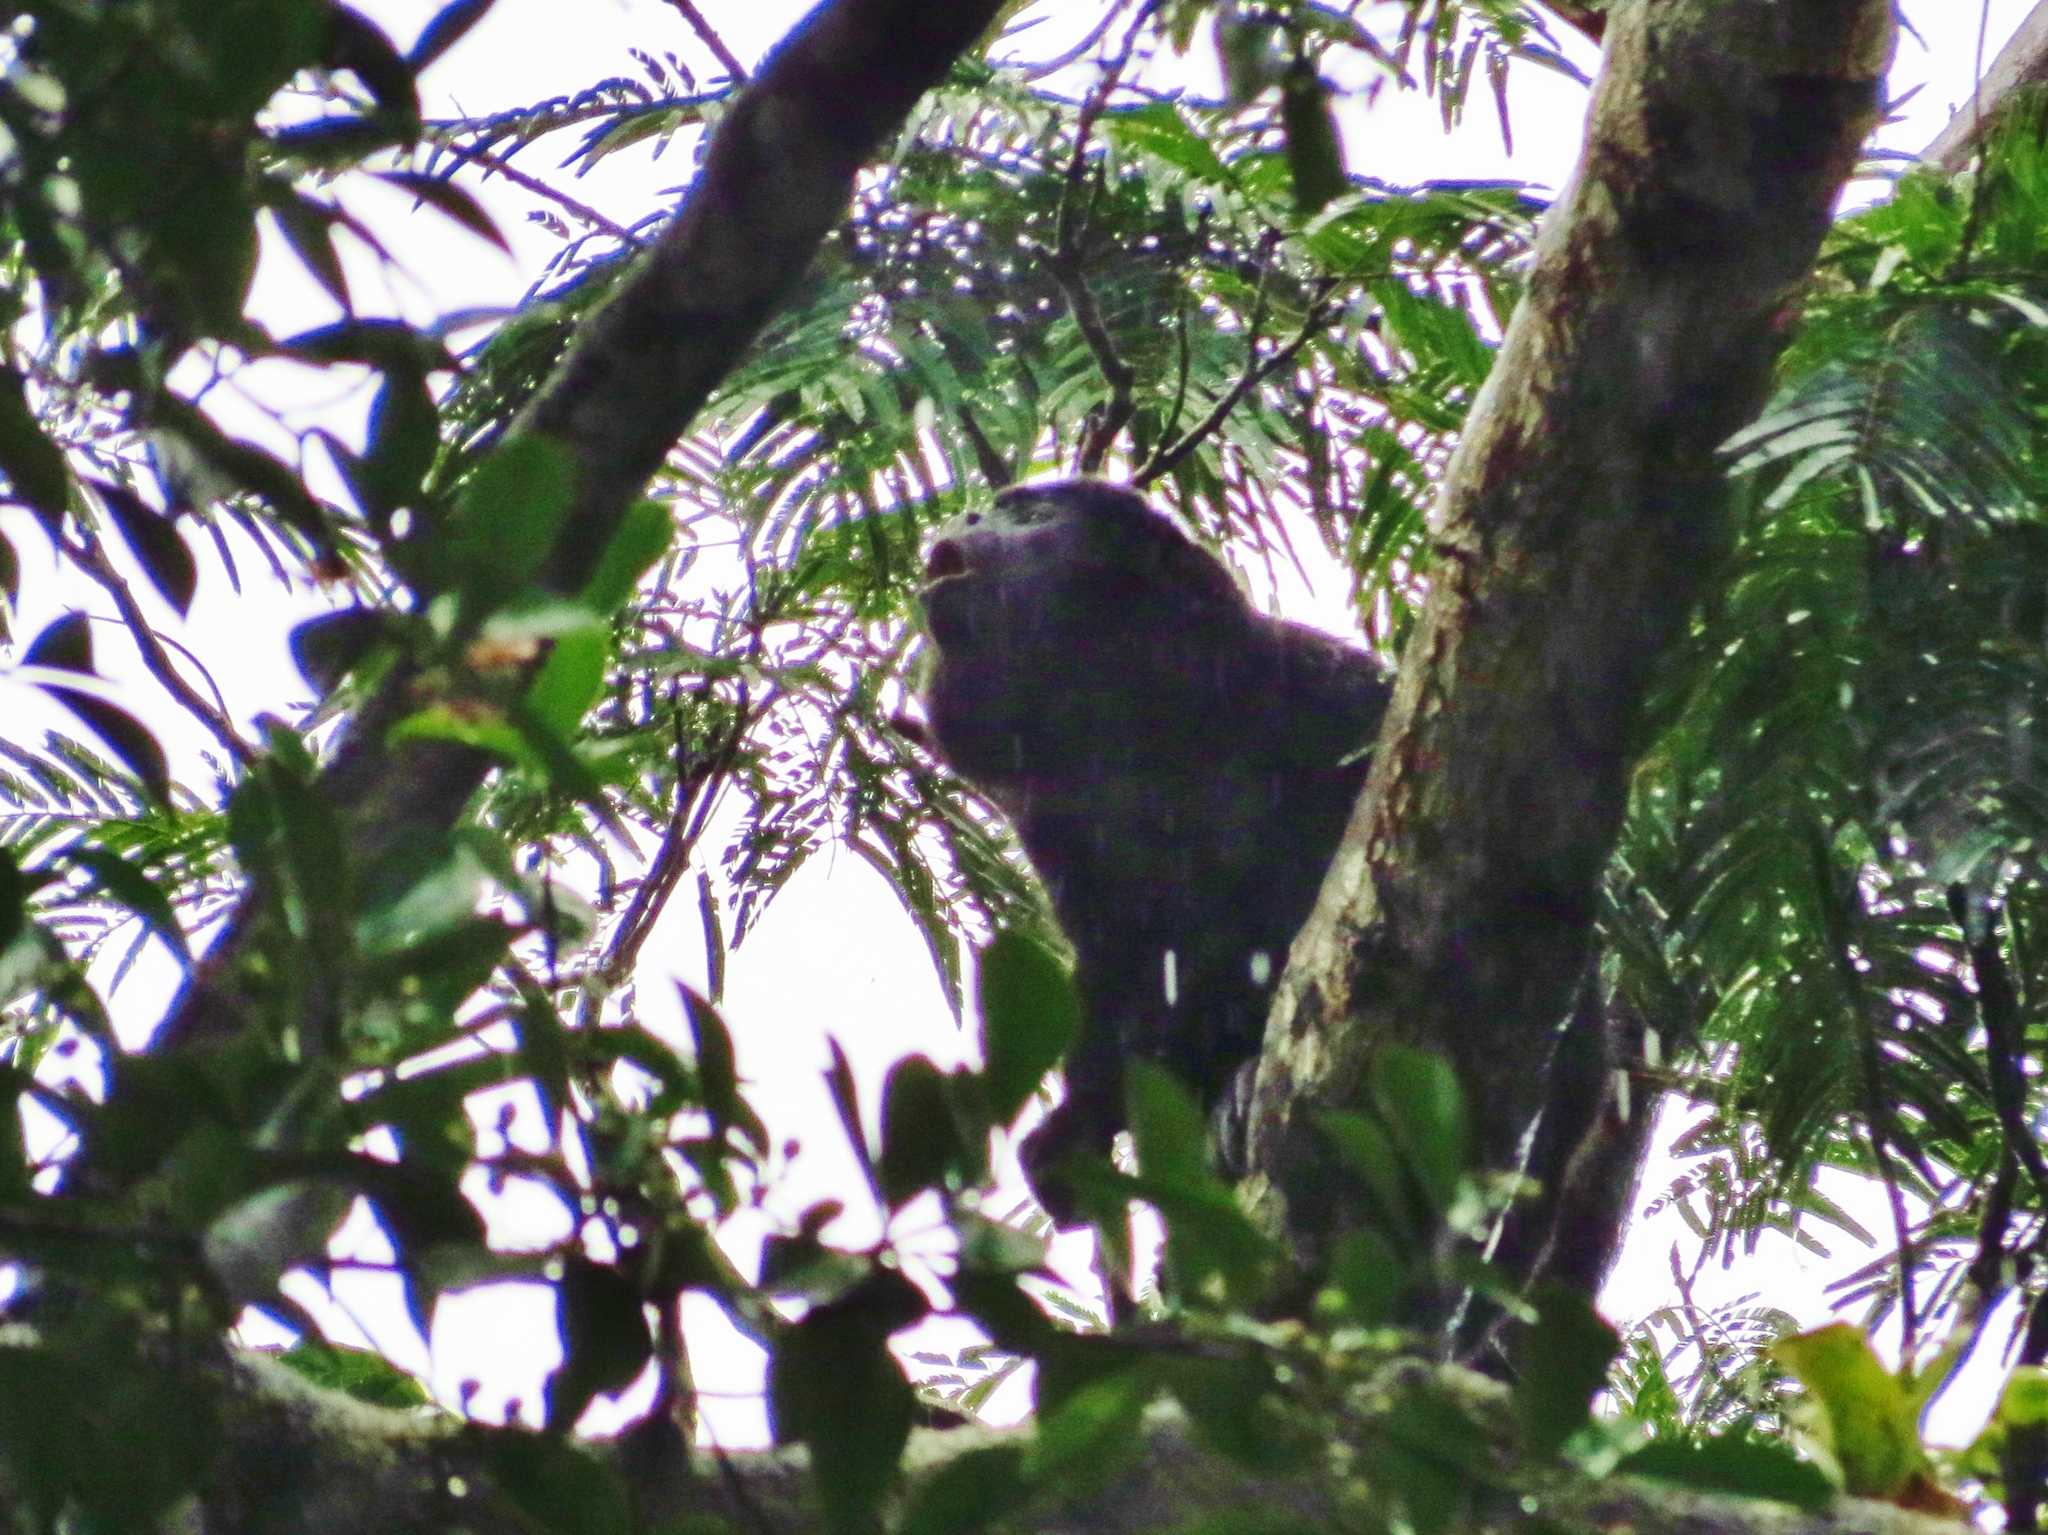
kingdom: Animalia
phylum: Chordata
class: Mammalia
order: Primates
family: Atelidae
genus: Alouatta
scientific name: Alouatta palliata
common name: Mantled howler
